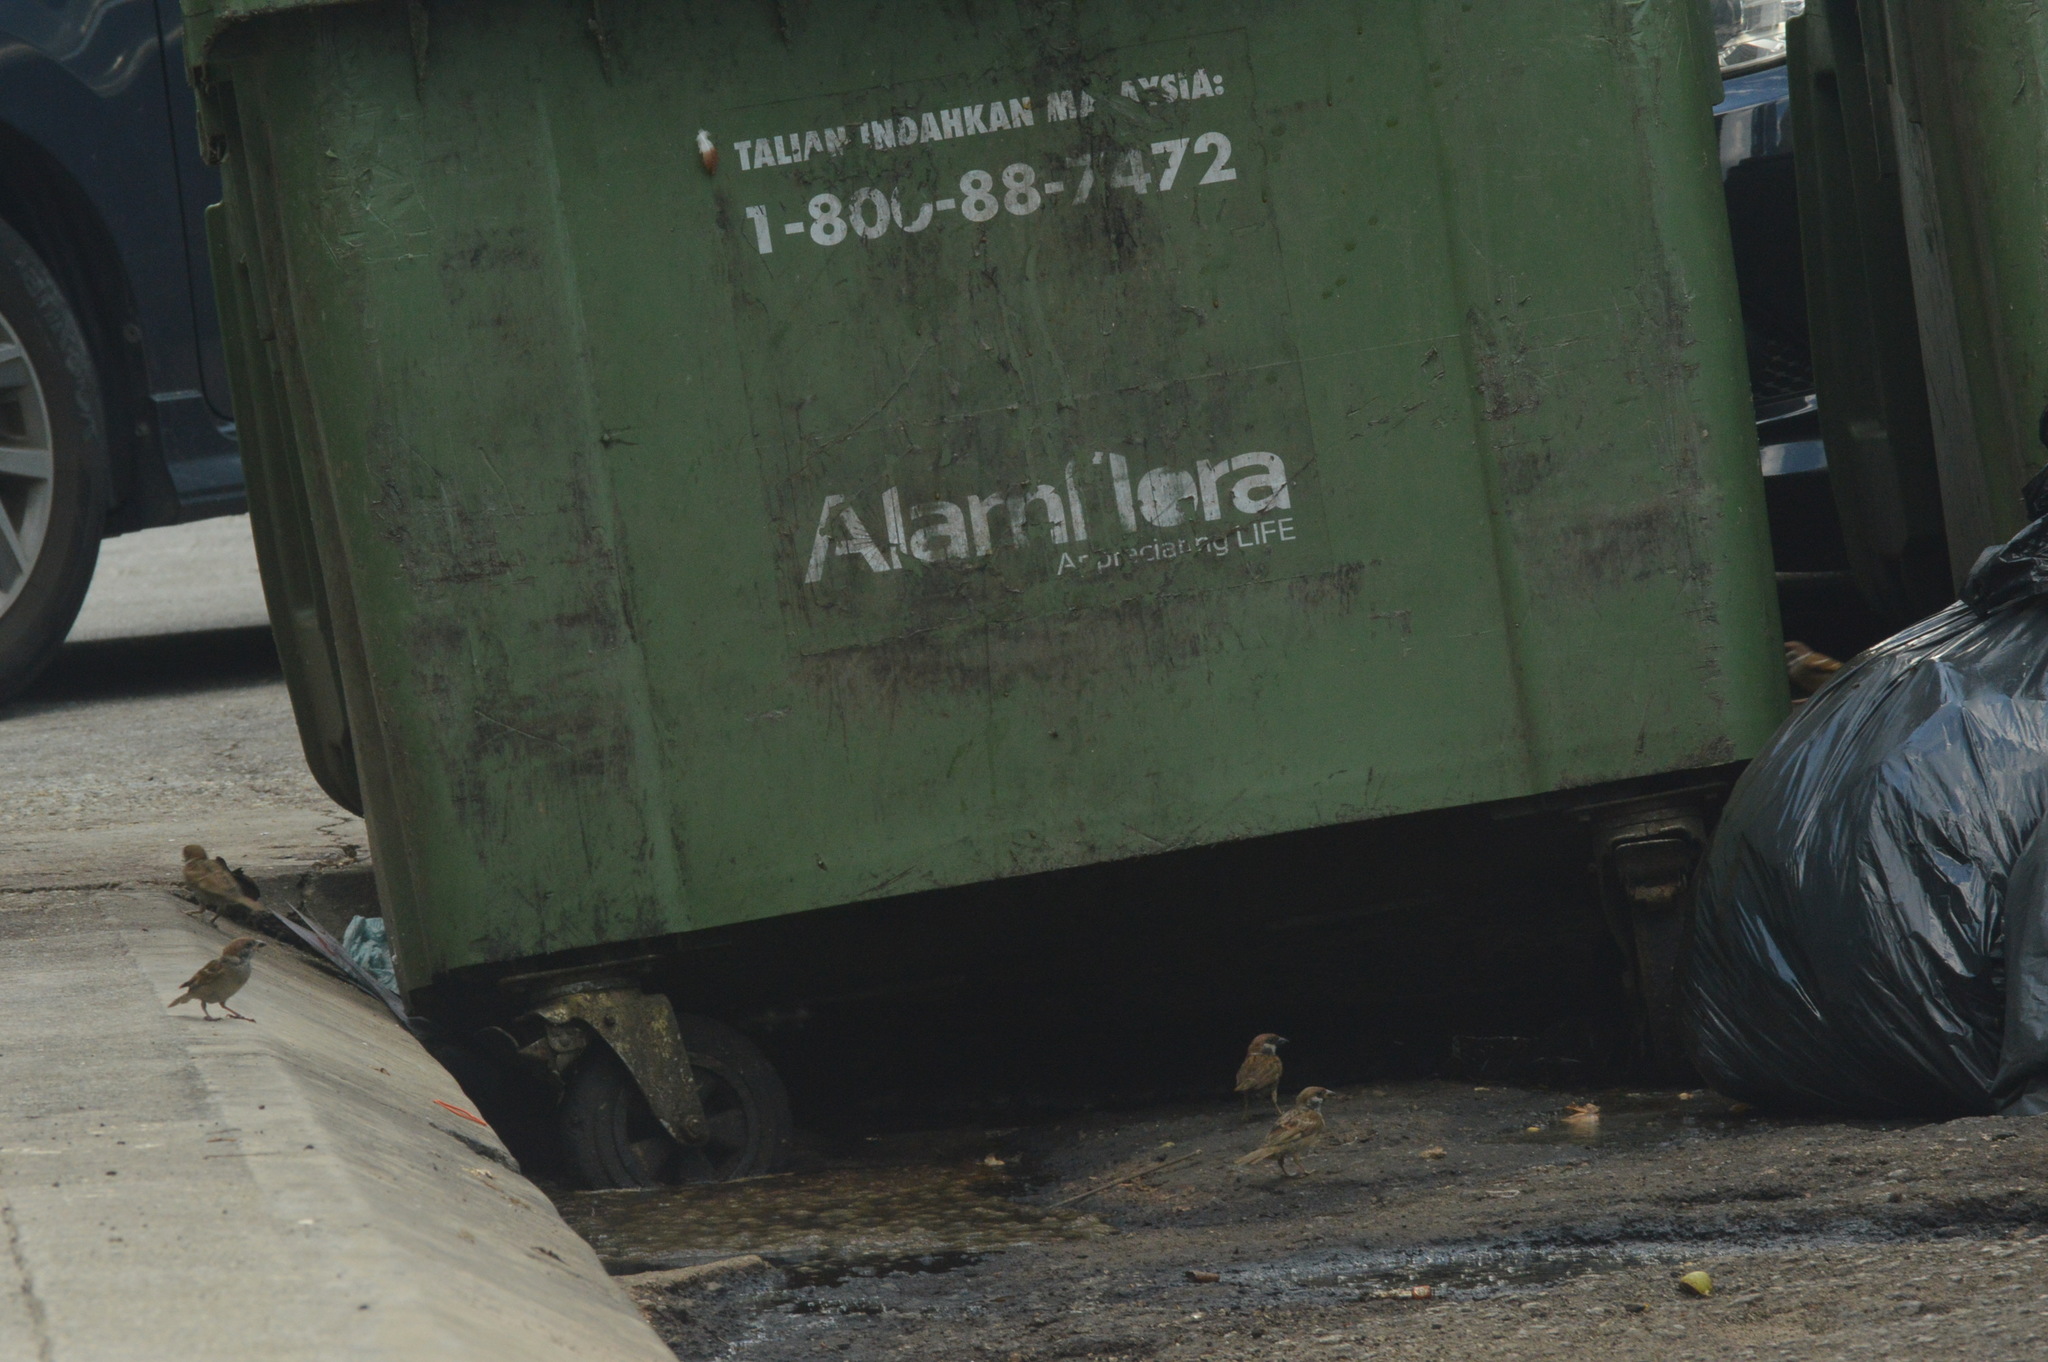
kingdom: Animalia
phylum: Chordata
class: Aves
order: Passeriformes
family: Passeridae
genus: Passer
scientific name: Passer montanus
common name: Eurasian tree sparrow
